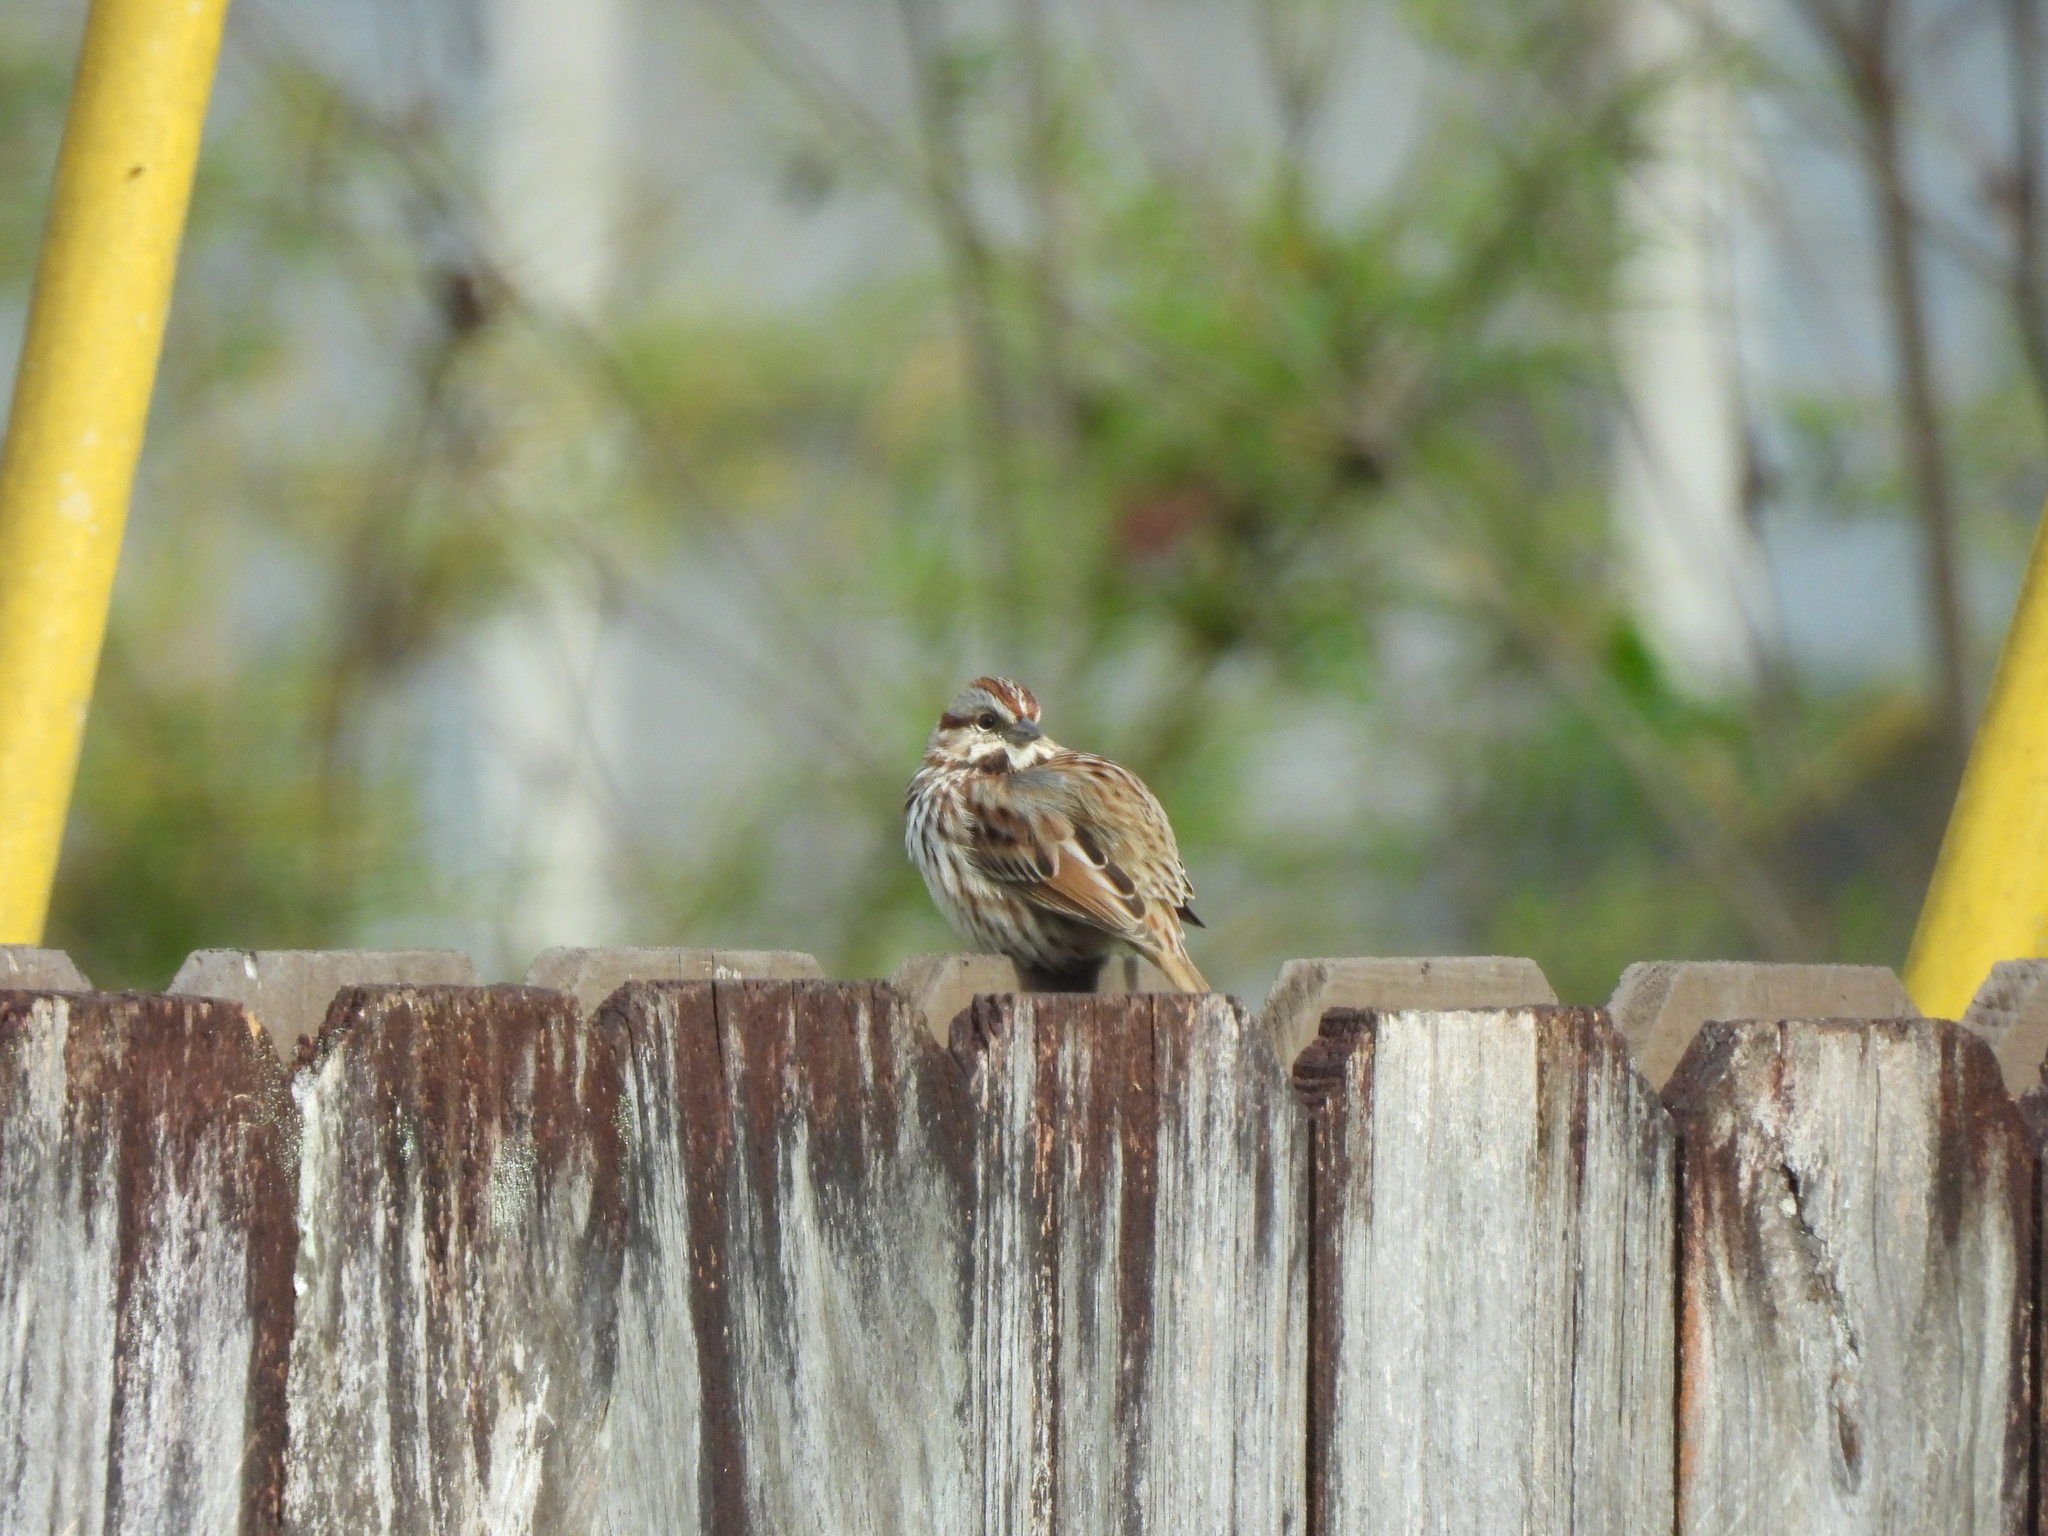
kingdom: Animalia
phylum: Chordata
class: Aves
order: Passeriformes
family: Passerellidae
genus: Melospiza
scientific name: Melospiza melodia
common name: Song sparrow
